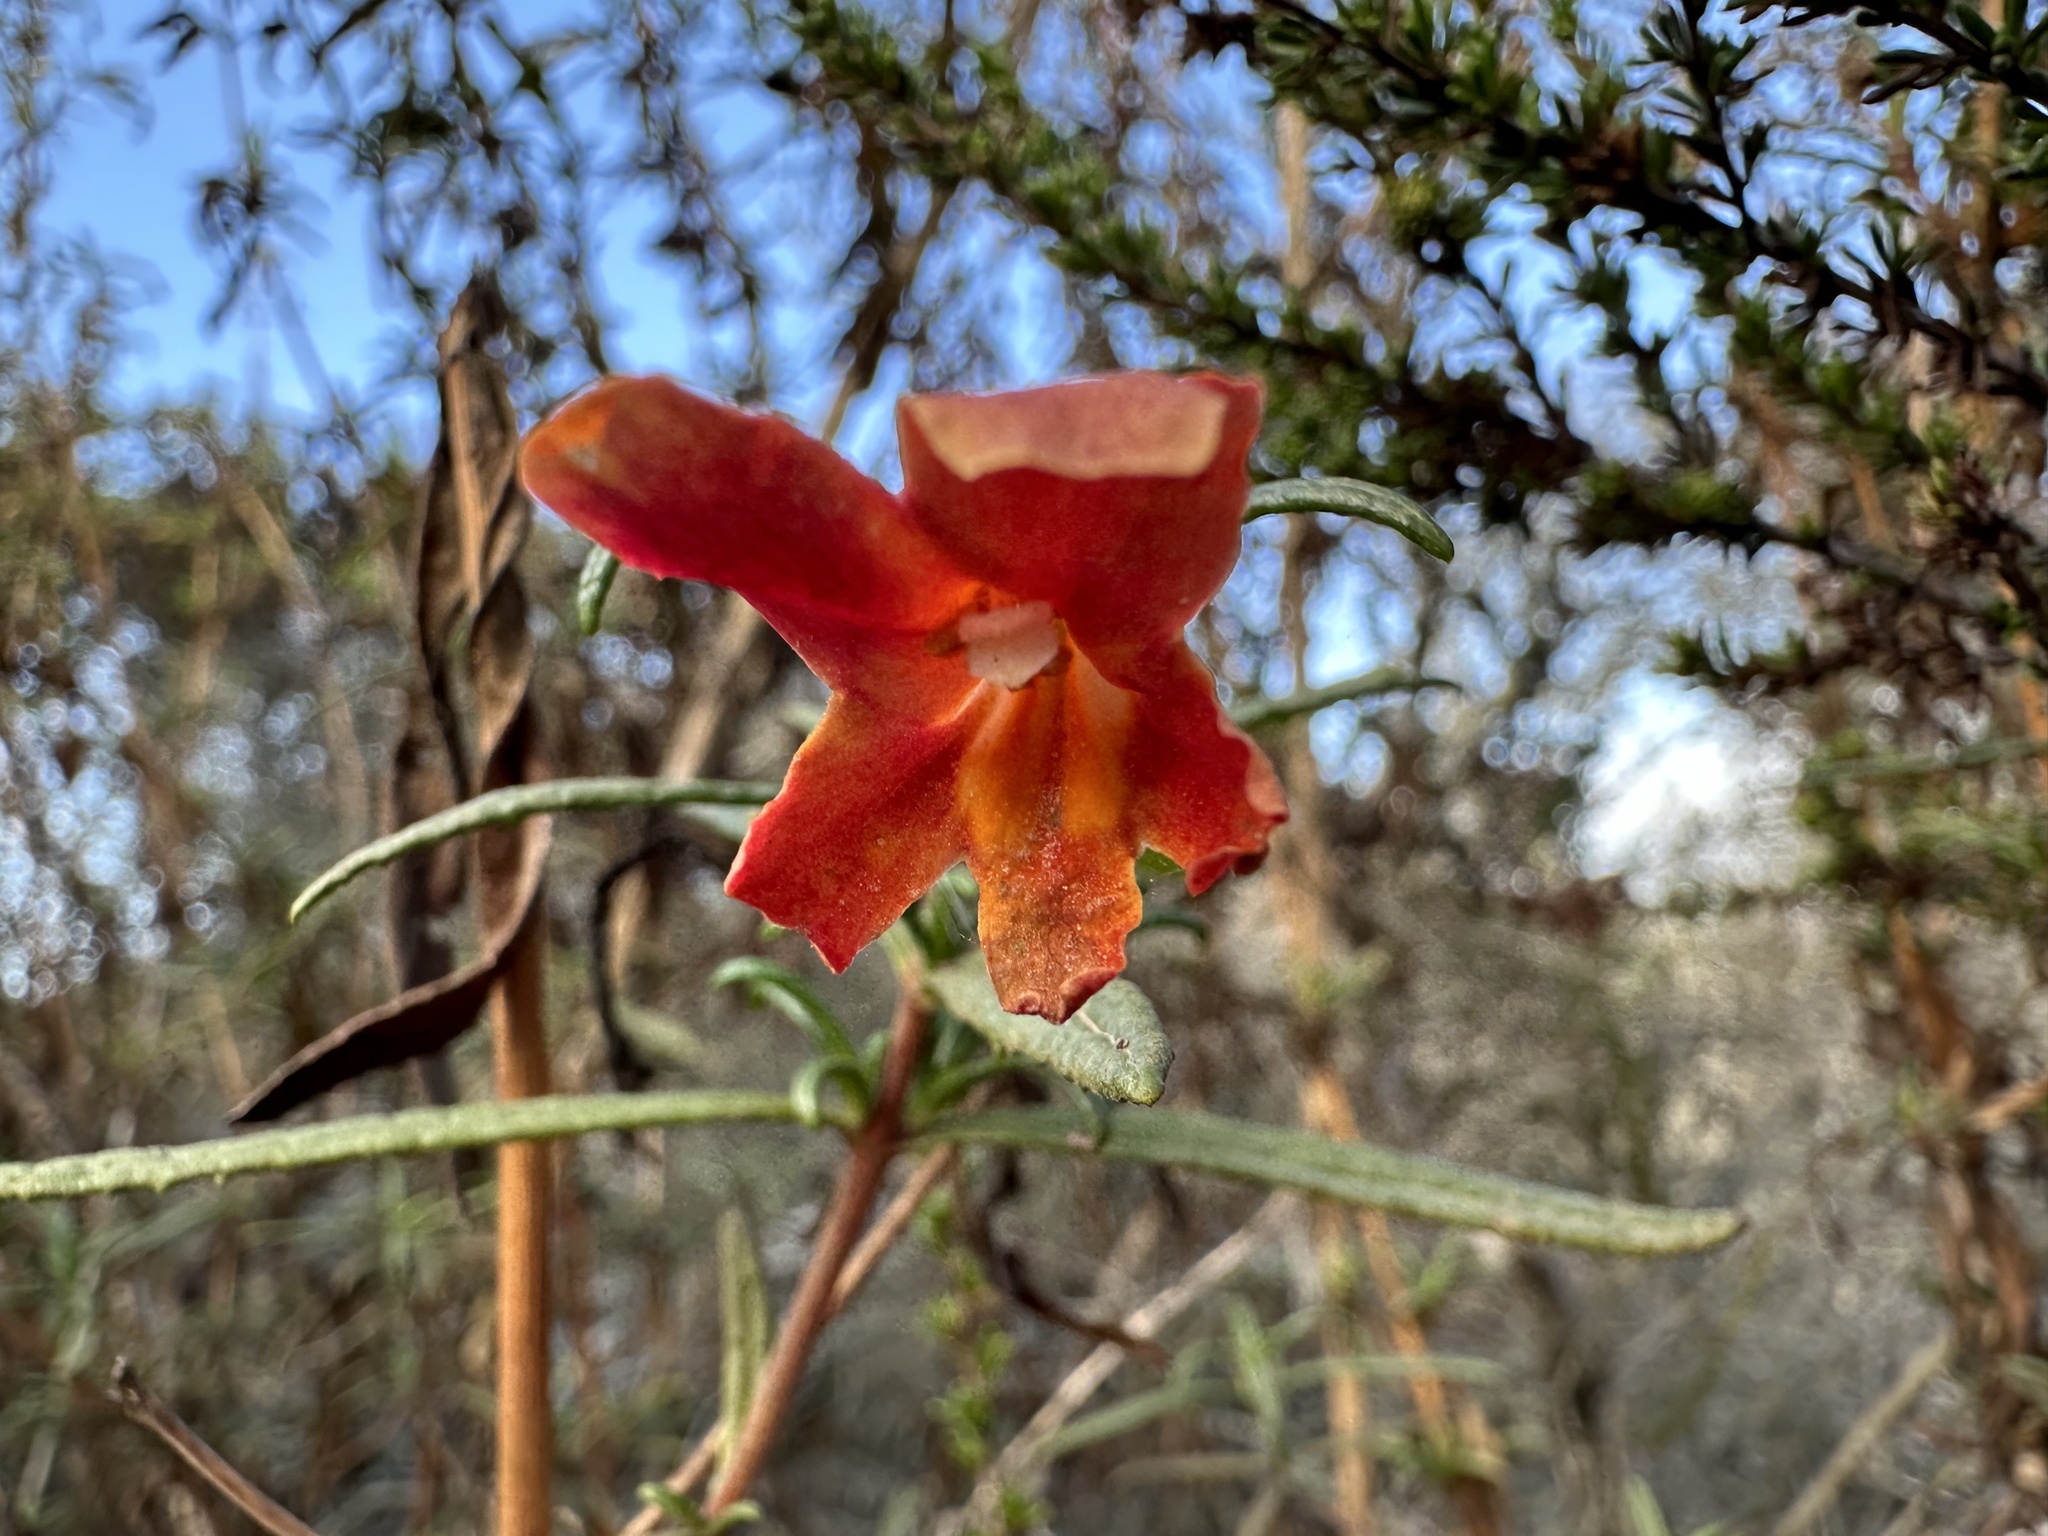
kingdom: Plantae
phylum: Tracheophyta
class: Magnoliopsida
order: Lamiales
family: Phrymaceae
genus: Diplacus
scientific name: Diplacus puniceus
